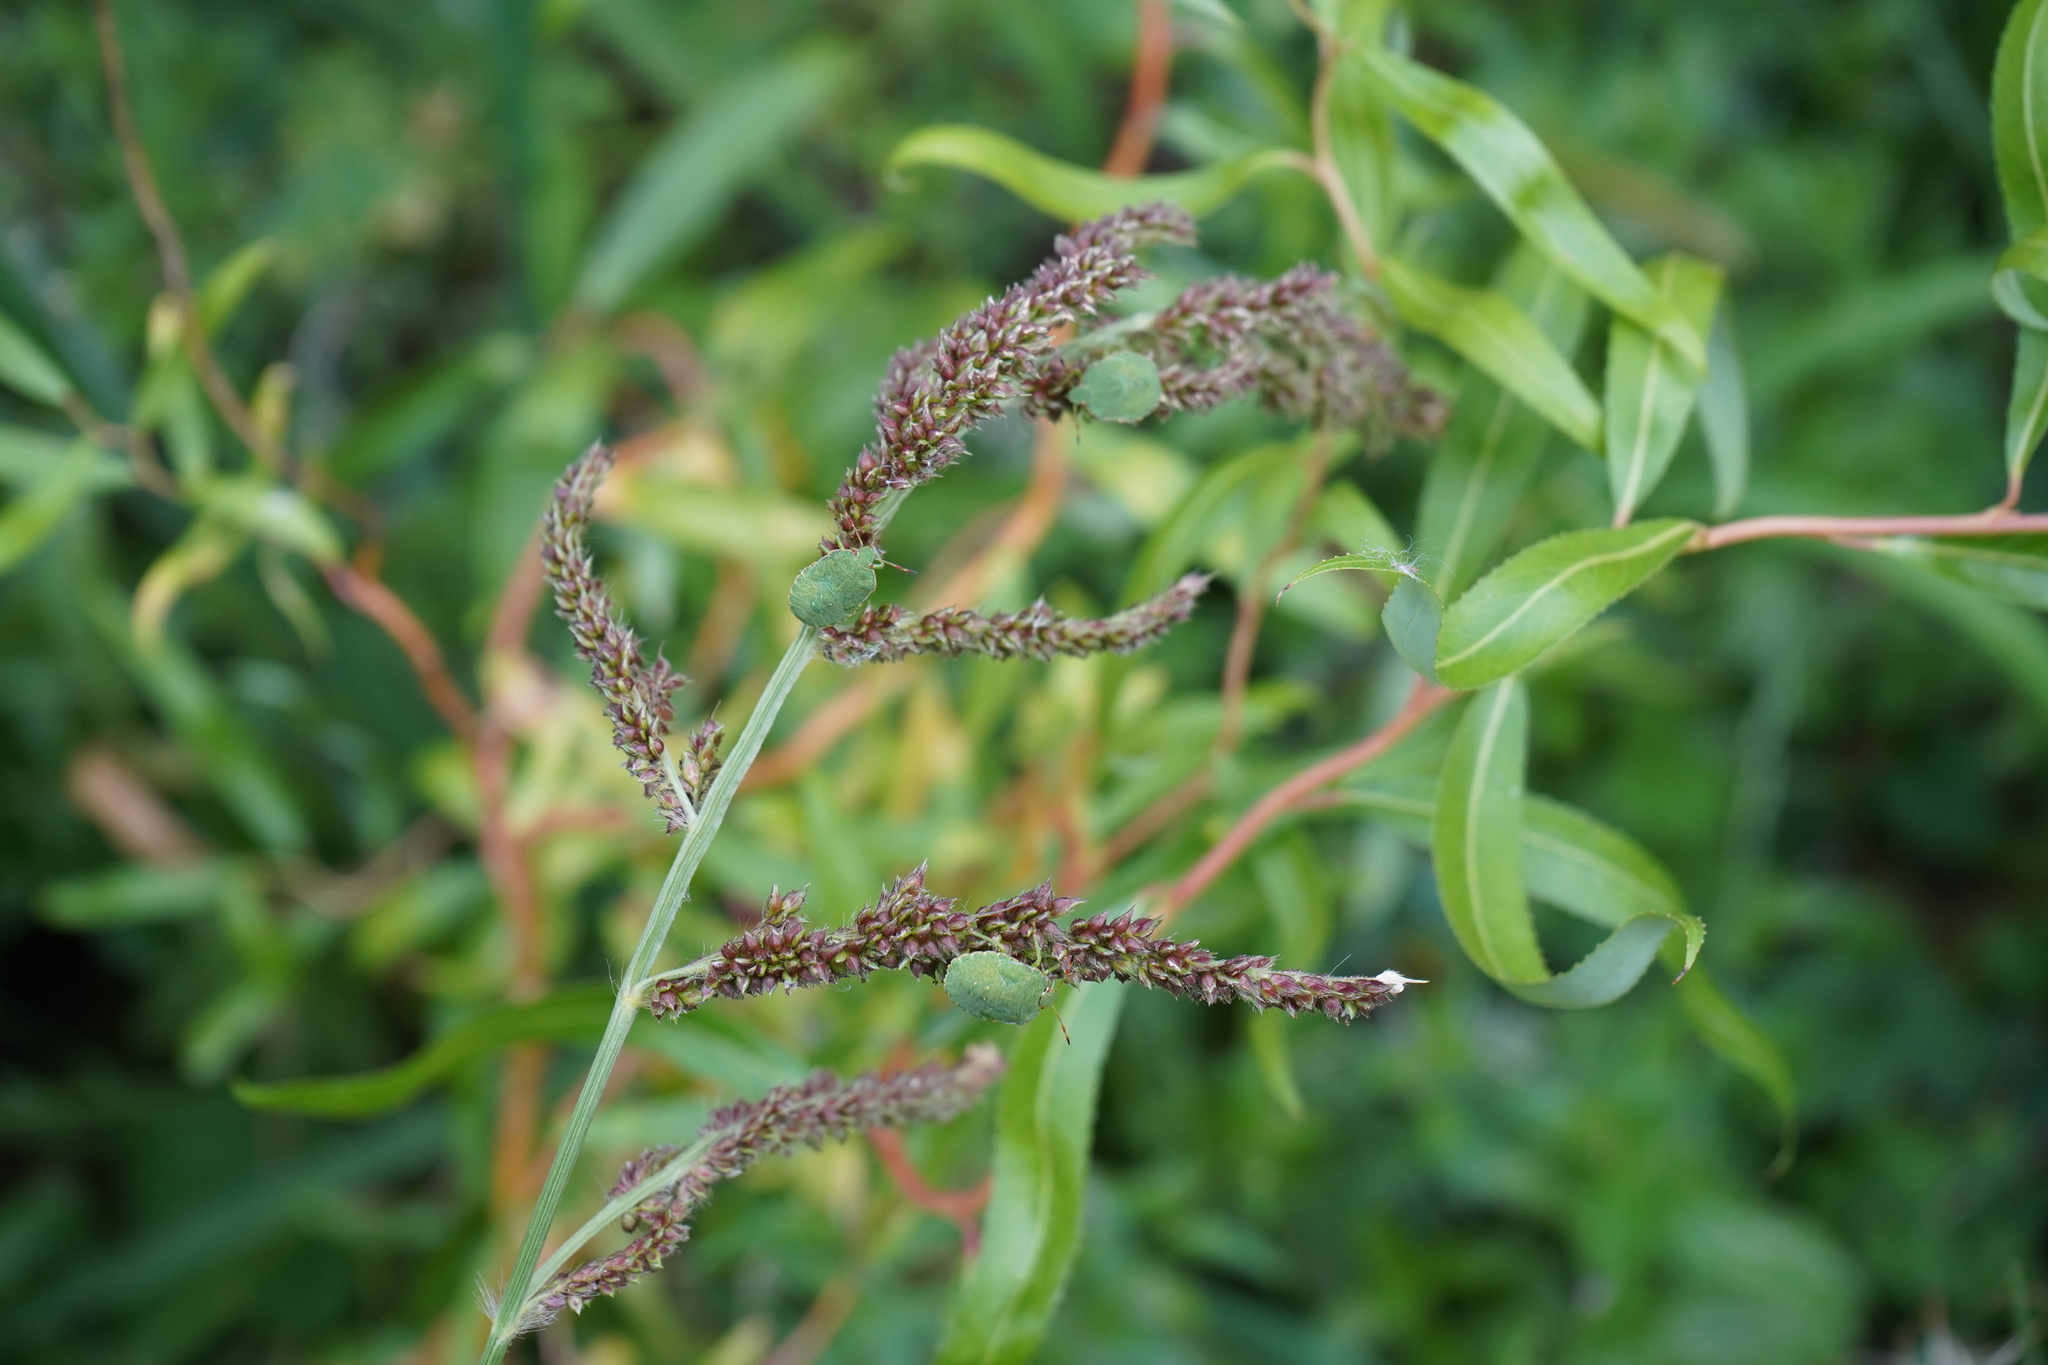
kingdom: Animalia
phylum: Arthropoda
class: Insecta
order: Hemiptera
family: Pentatomidae
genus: Palomena
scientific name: Palomena prasina
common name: Green shieldbug
